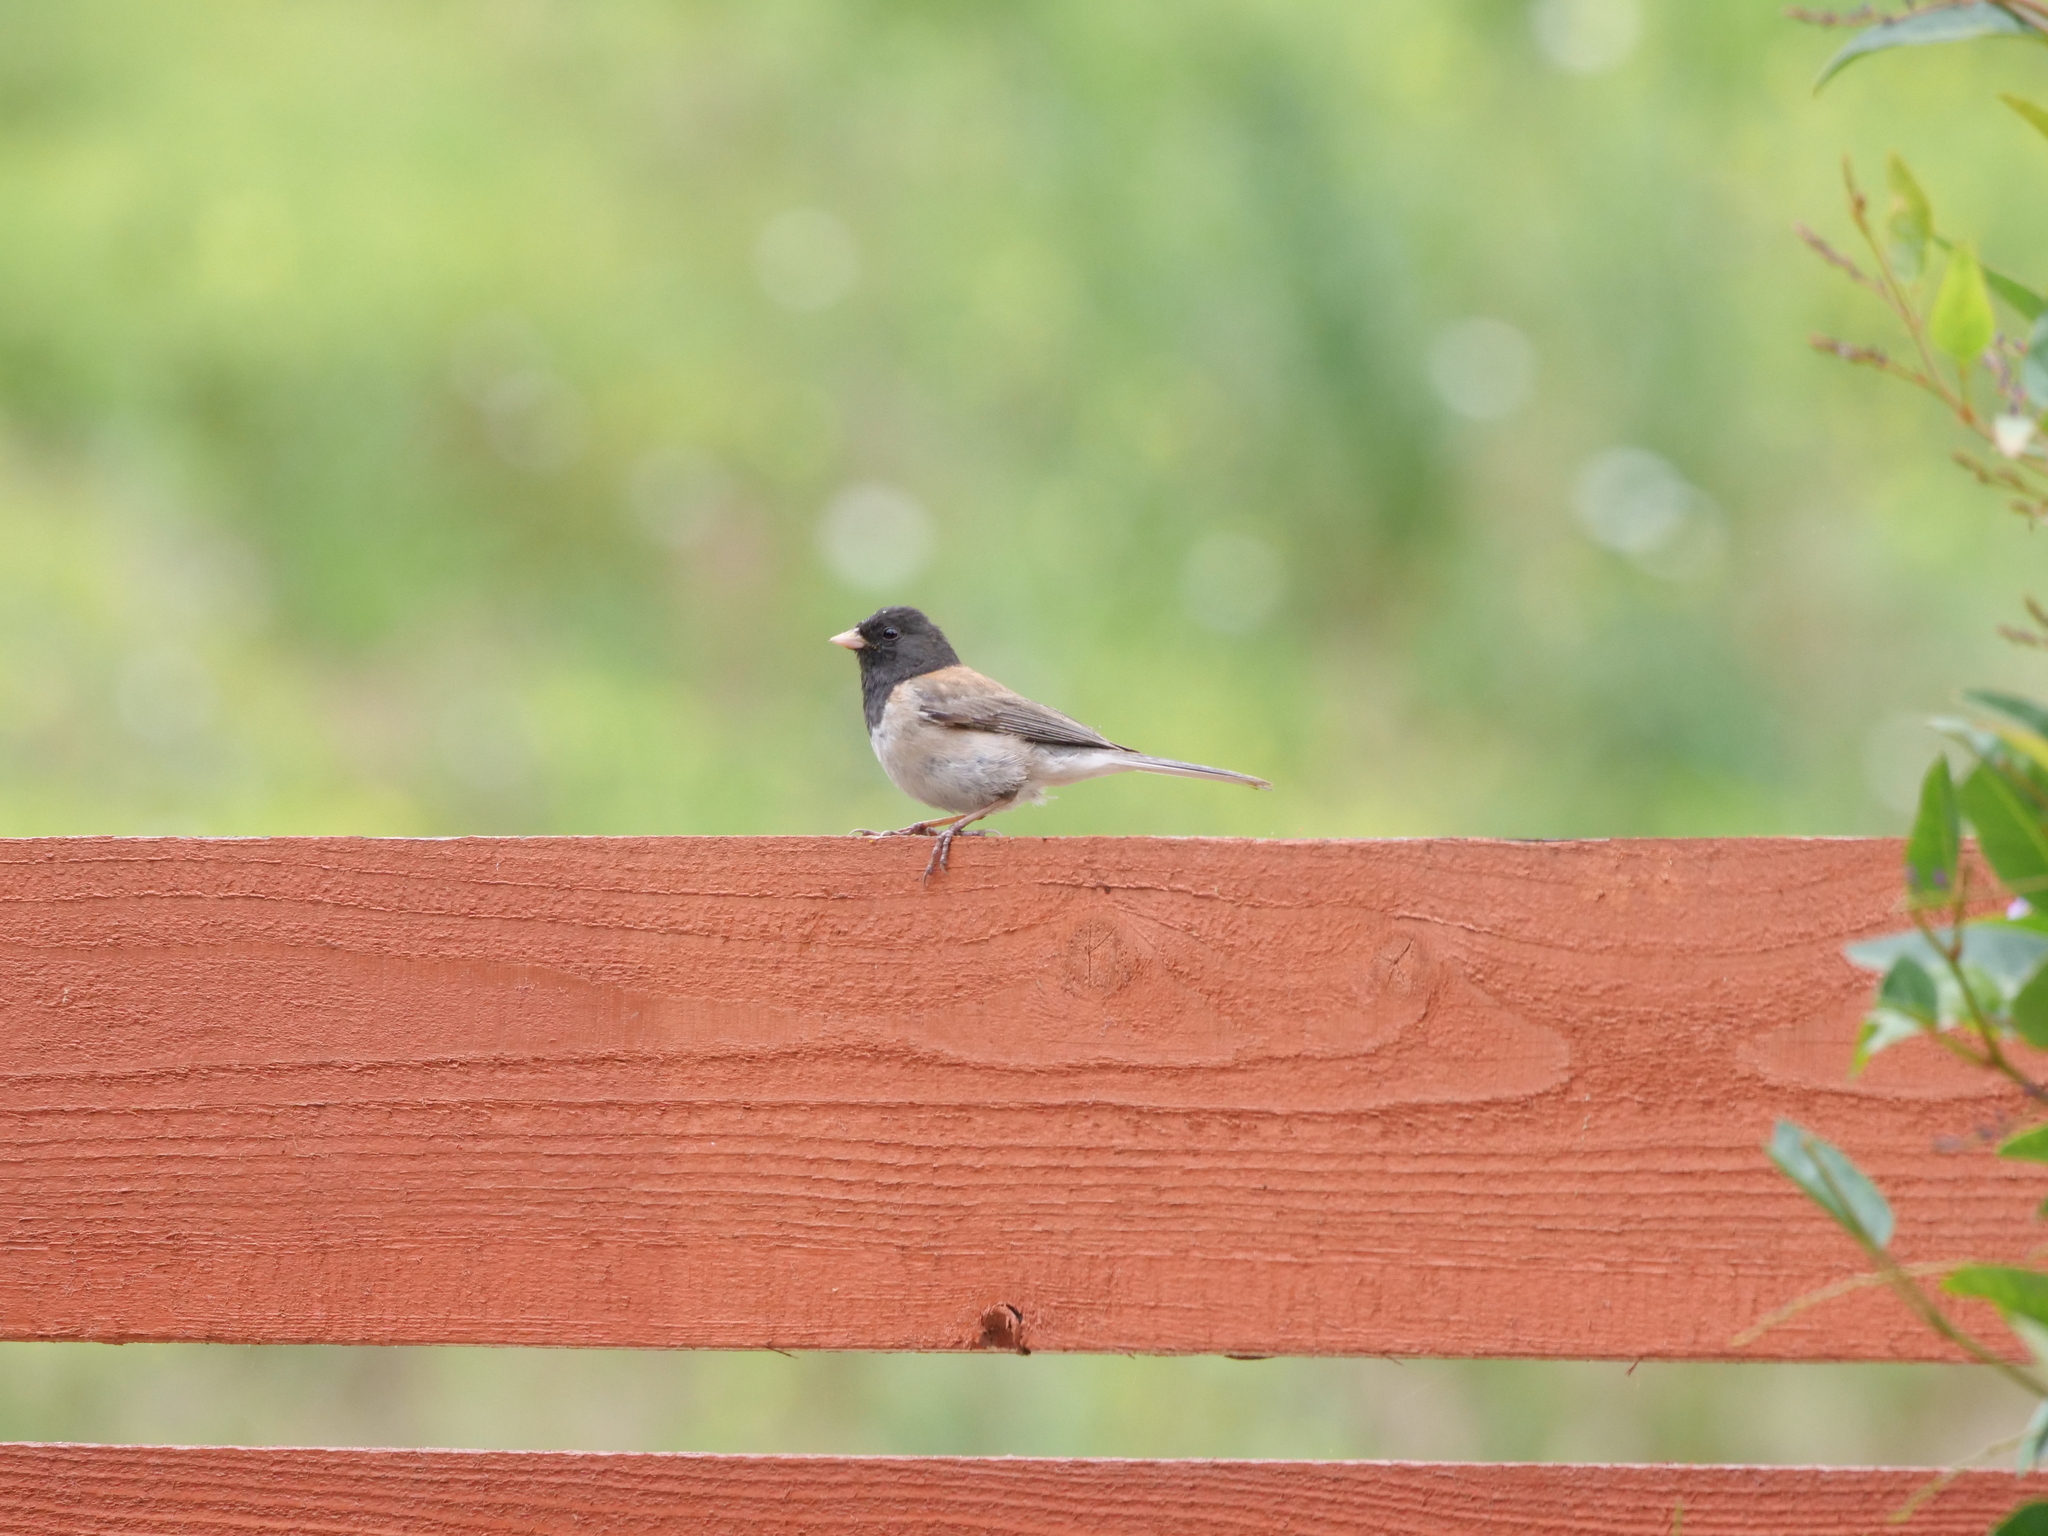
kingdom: Animalia
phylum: Chordata
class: Aves
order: Passeriformes
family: Passerellidae
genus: Junco
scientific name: Junco hyemalis
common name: Dark-eyed junco
